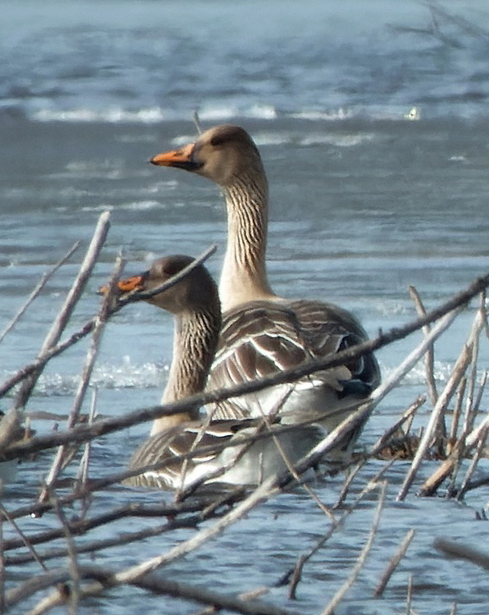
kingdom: Animalia
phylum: Chordata
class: Aves
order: Anseriformes
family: Anatidae
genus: Anser
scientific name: Anser fabalis
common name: Bean goose
